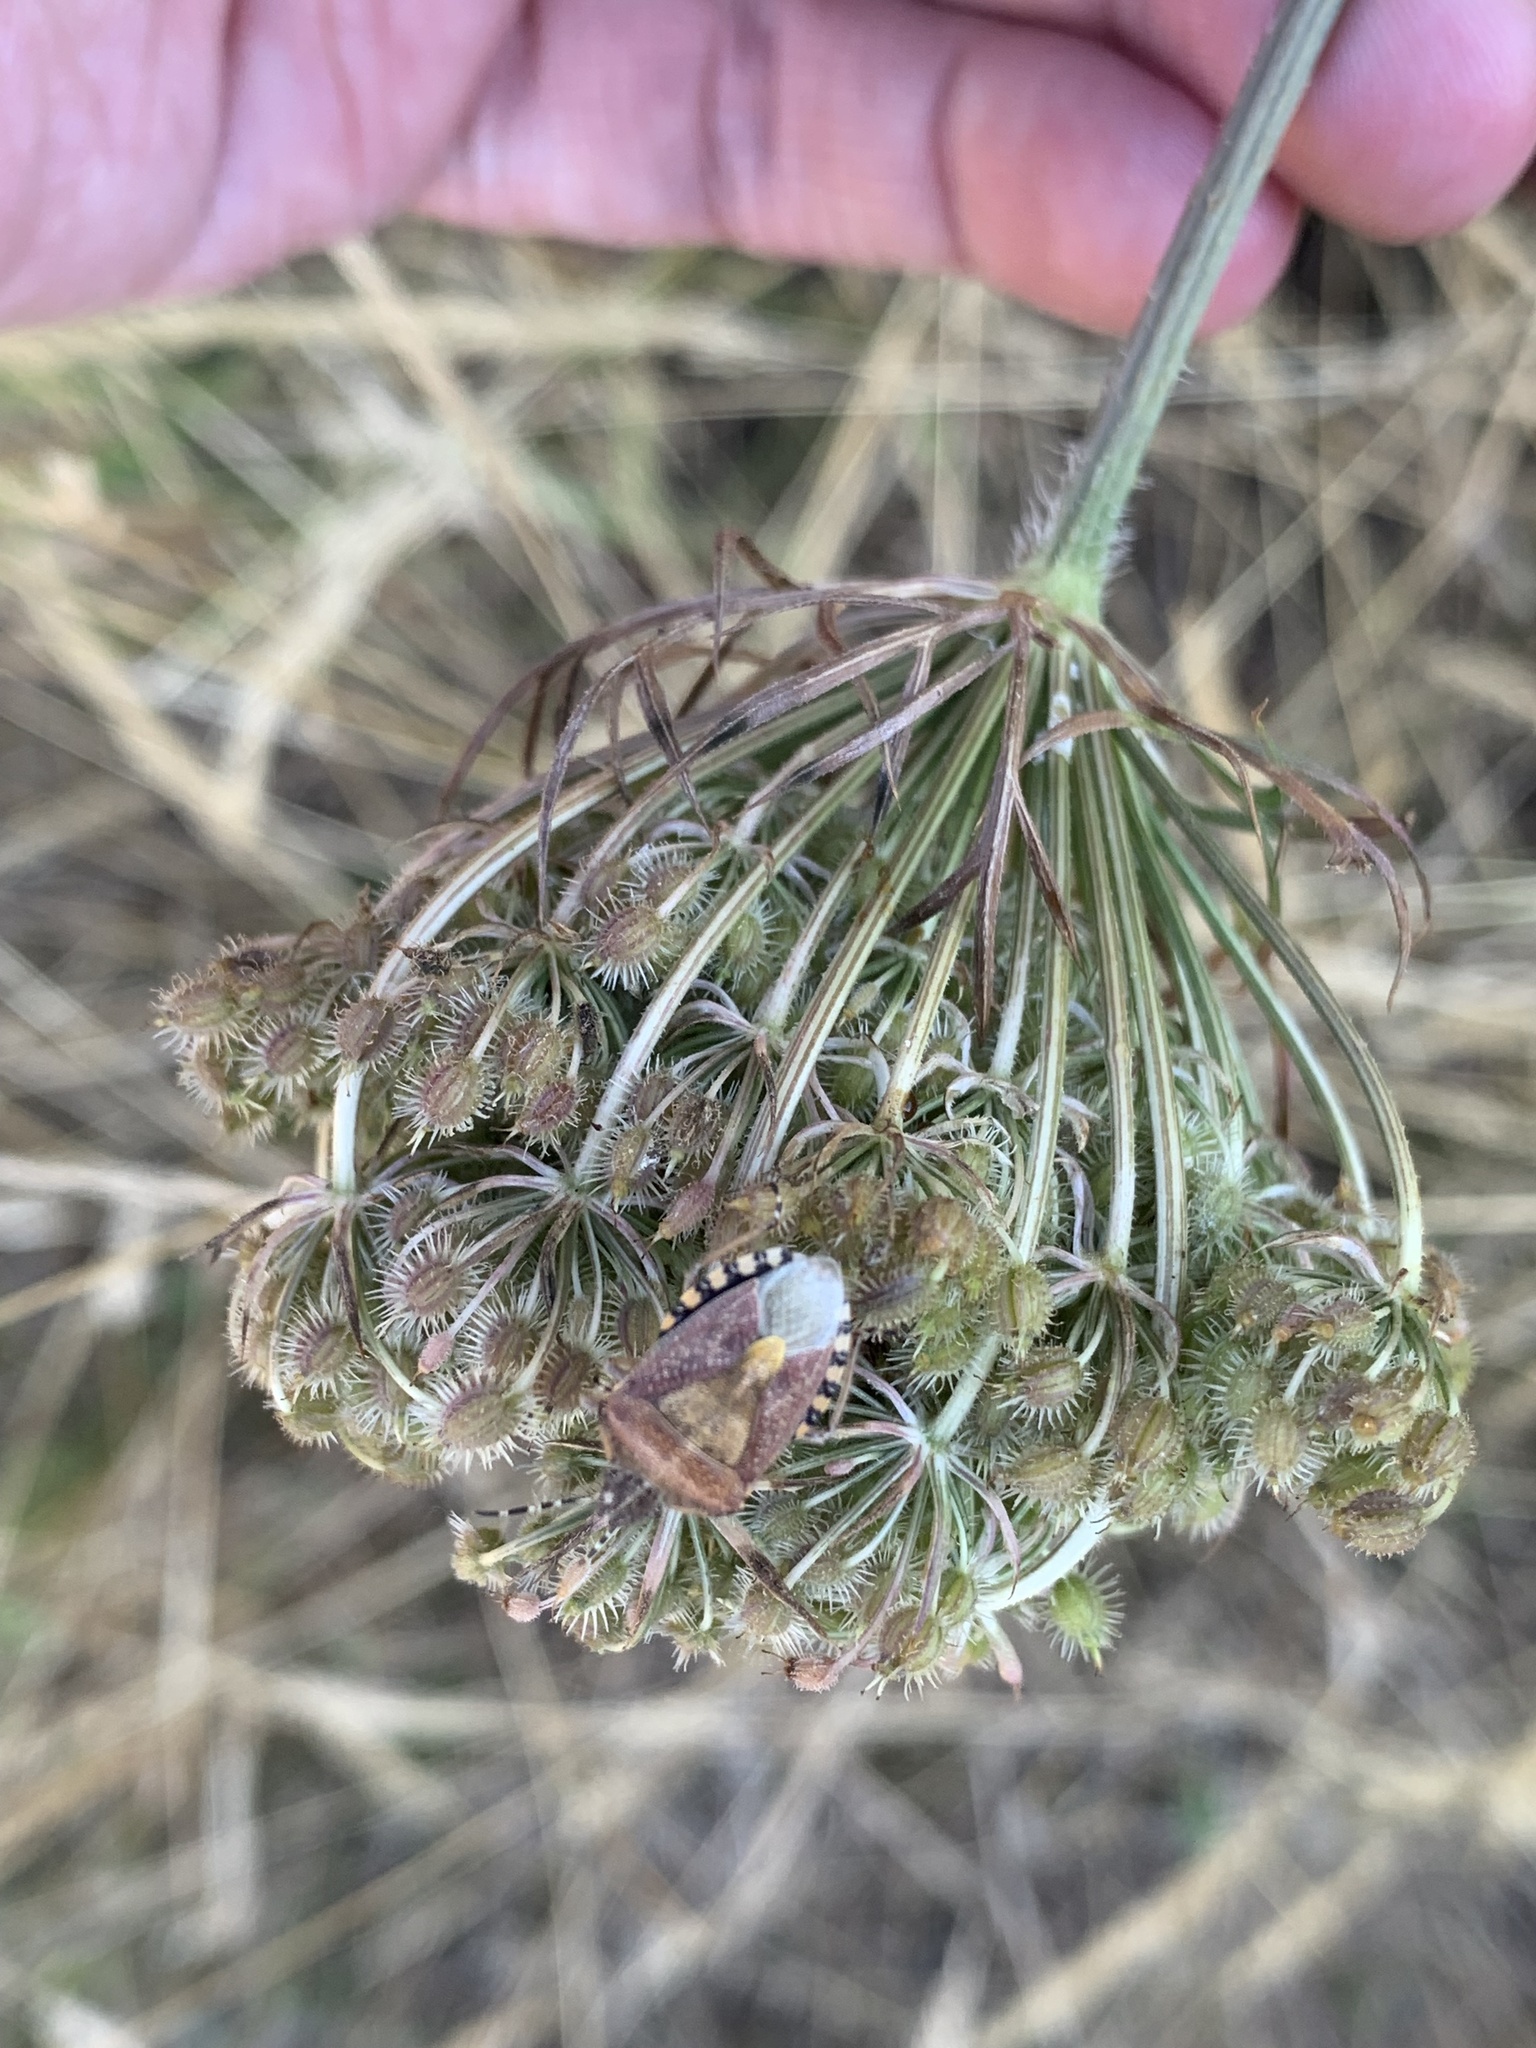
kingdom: Animalia
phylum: Arthropoda
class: Insecta
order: Hemiptera
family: Pentatomidae
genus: Dolycoris
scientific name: Dolycoris baccarum
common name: Sloe bug
